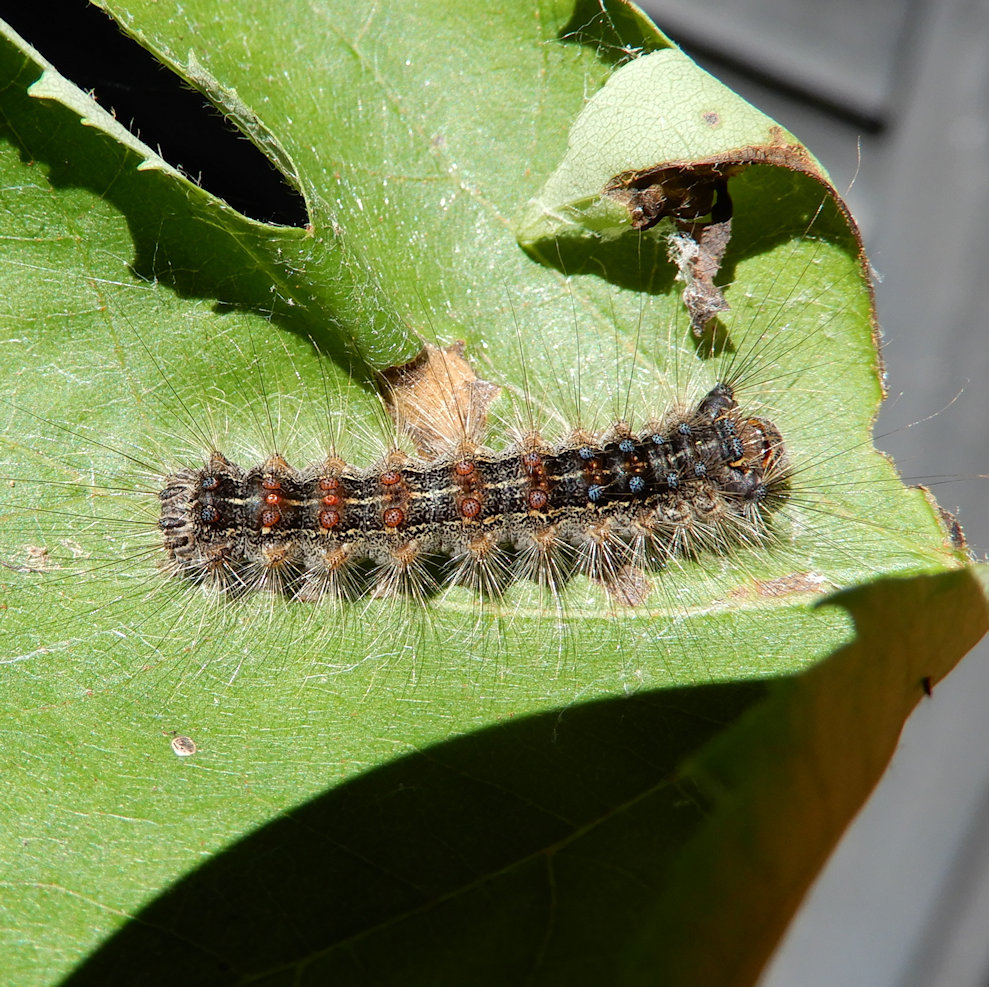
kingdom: Animalia
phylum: Arthropoda
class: Insecta
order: Lepidoptera
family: Erebidae
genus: Lymantria
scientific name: Lymantria dispar
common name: Gypsy moth
